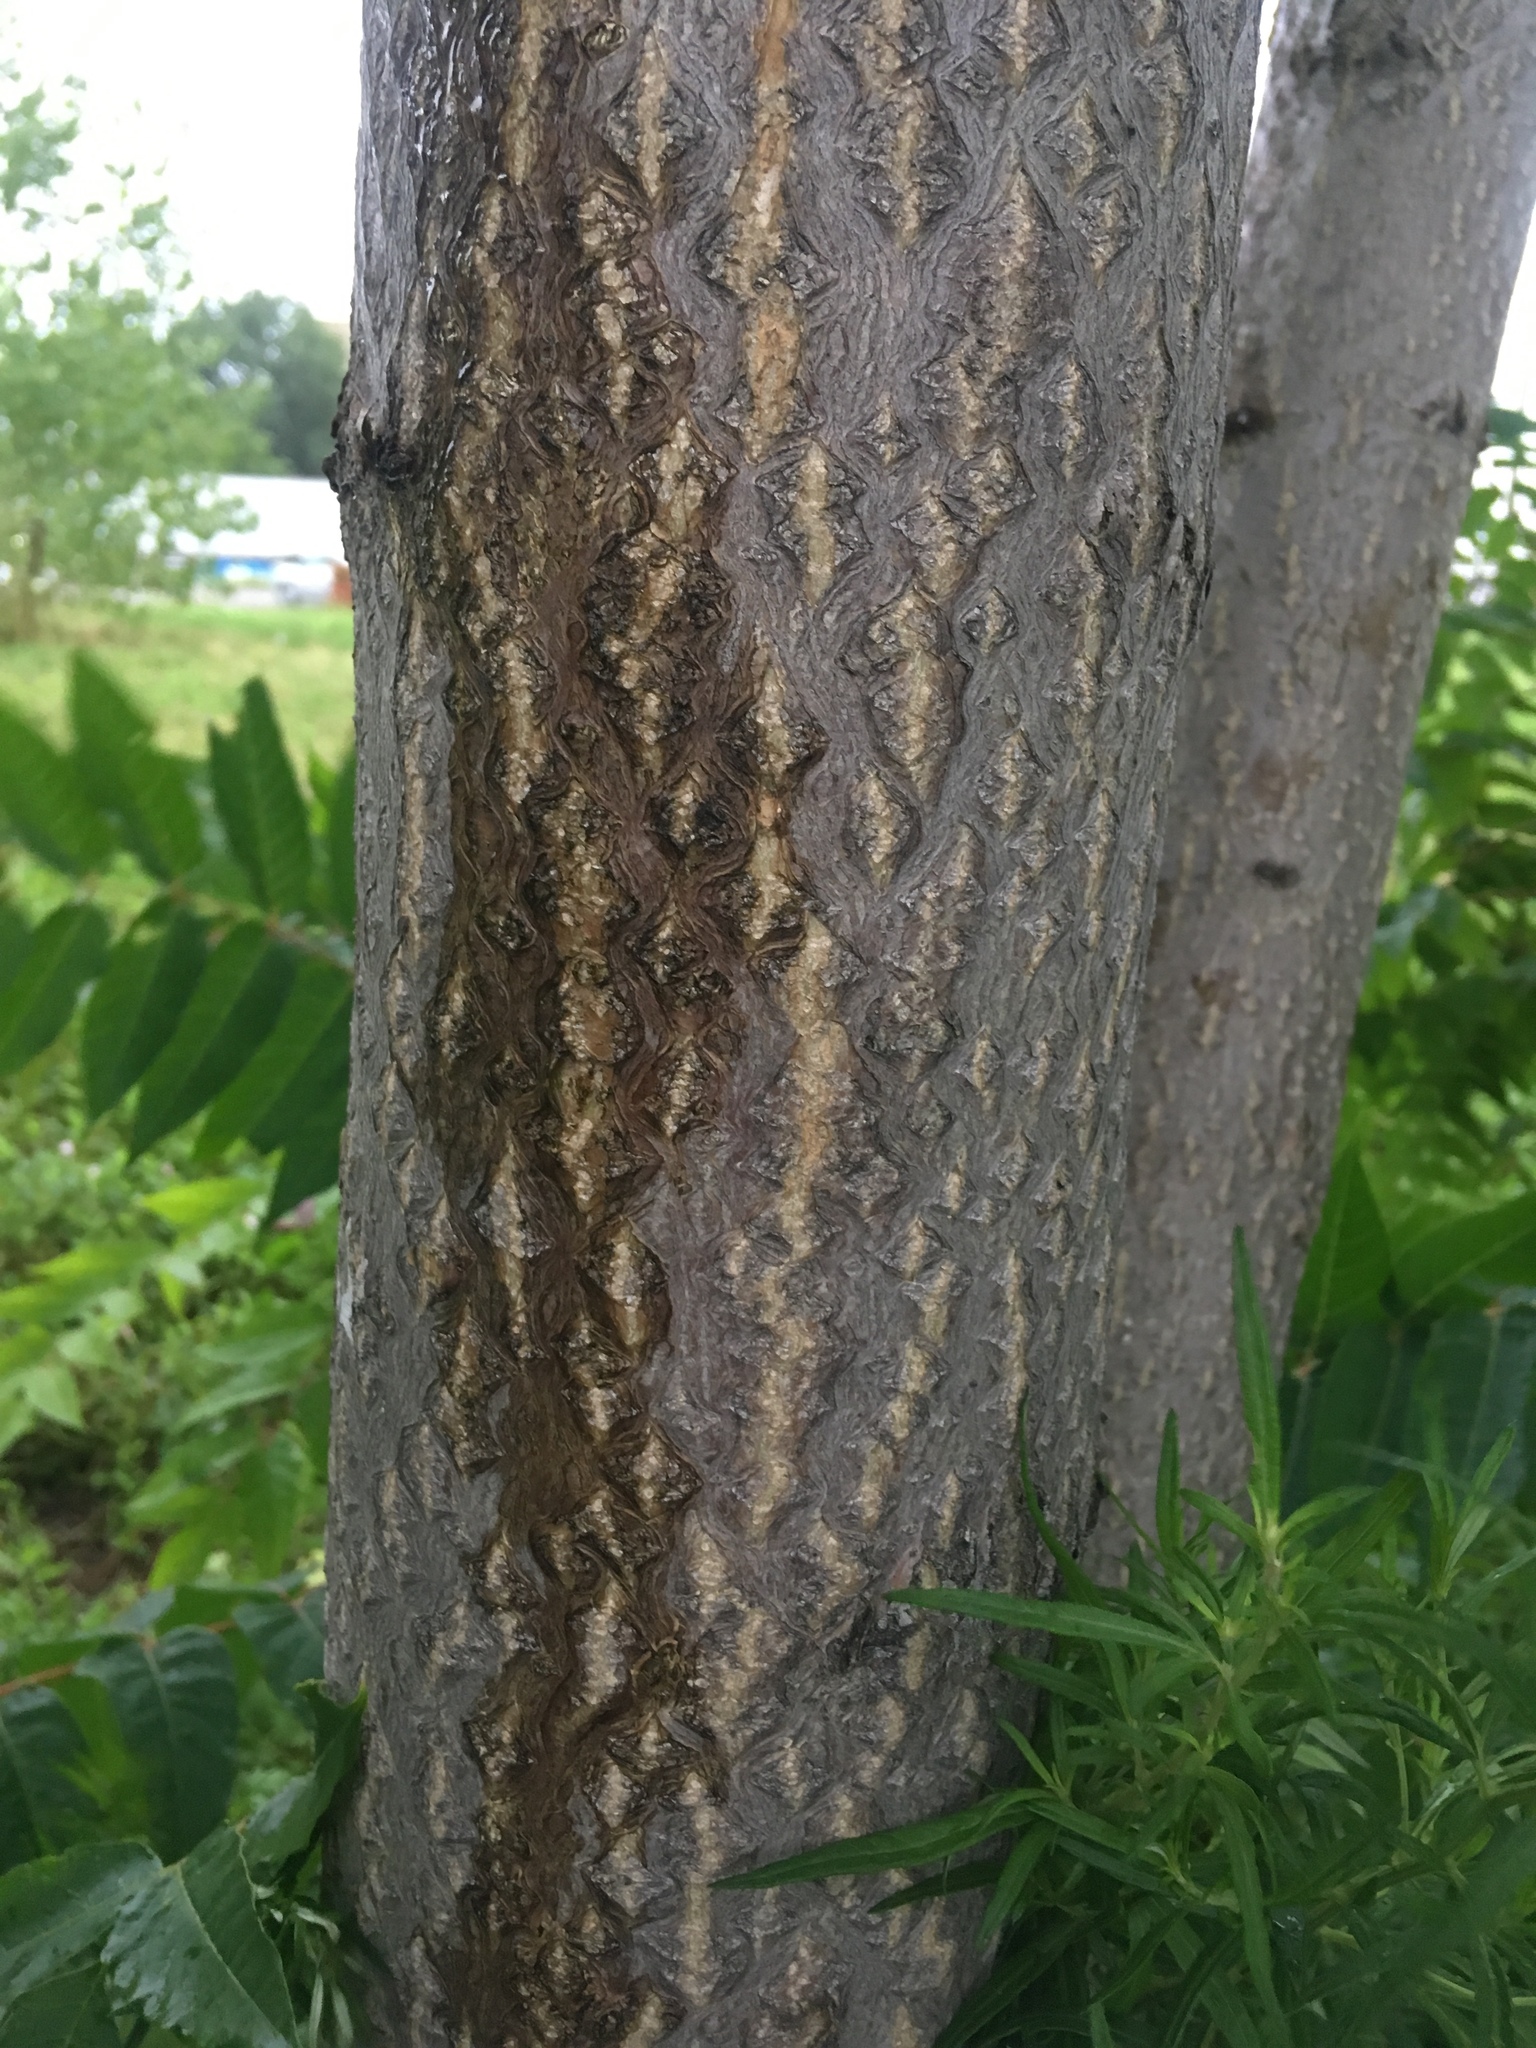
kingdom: Plantae
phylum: Tracheophyta
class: Magnoliopsida
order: Sapindales
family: Simaroubaceae
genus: Ailanthus
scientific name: Ailanthus altissima
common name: Tree-of-heaven
